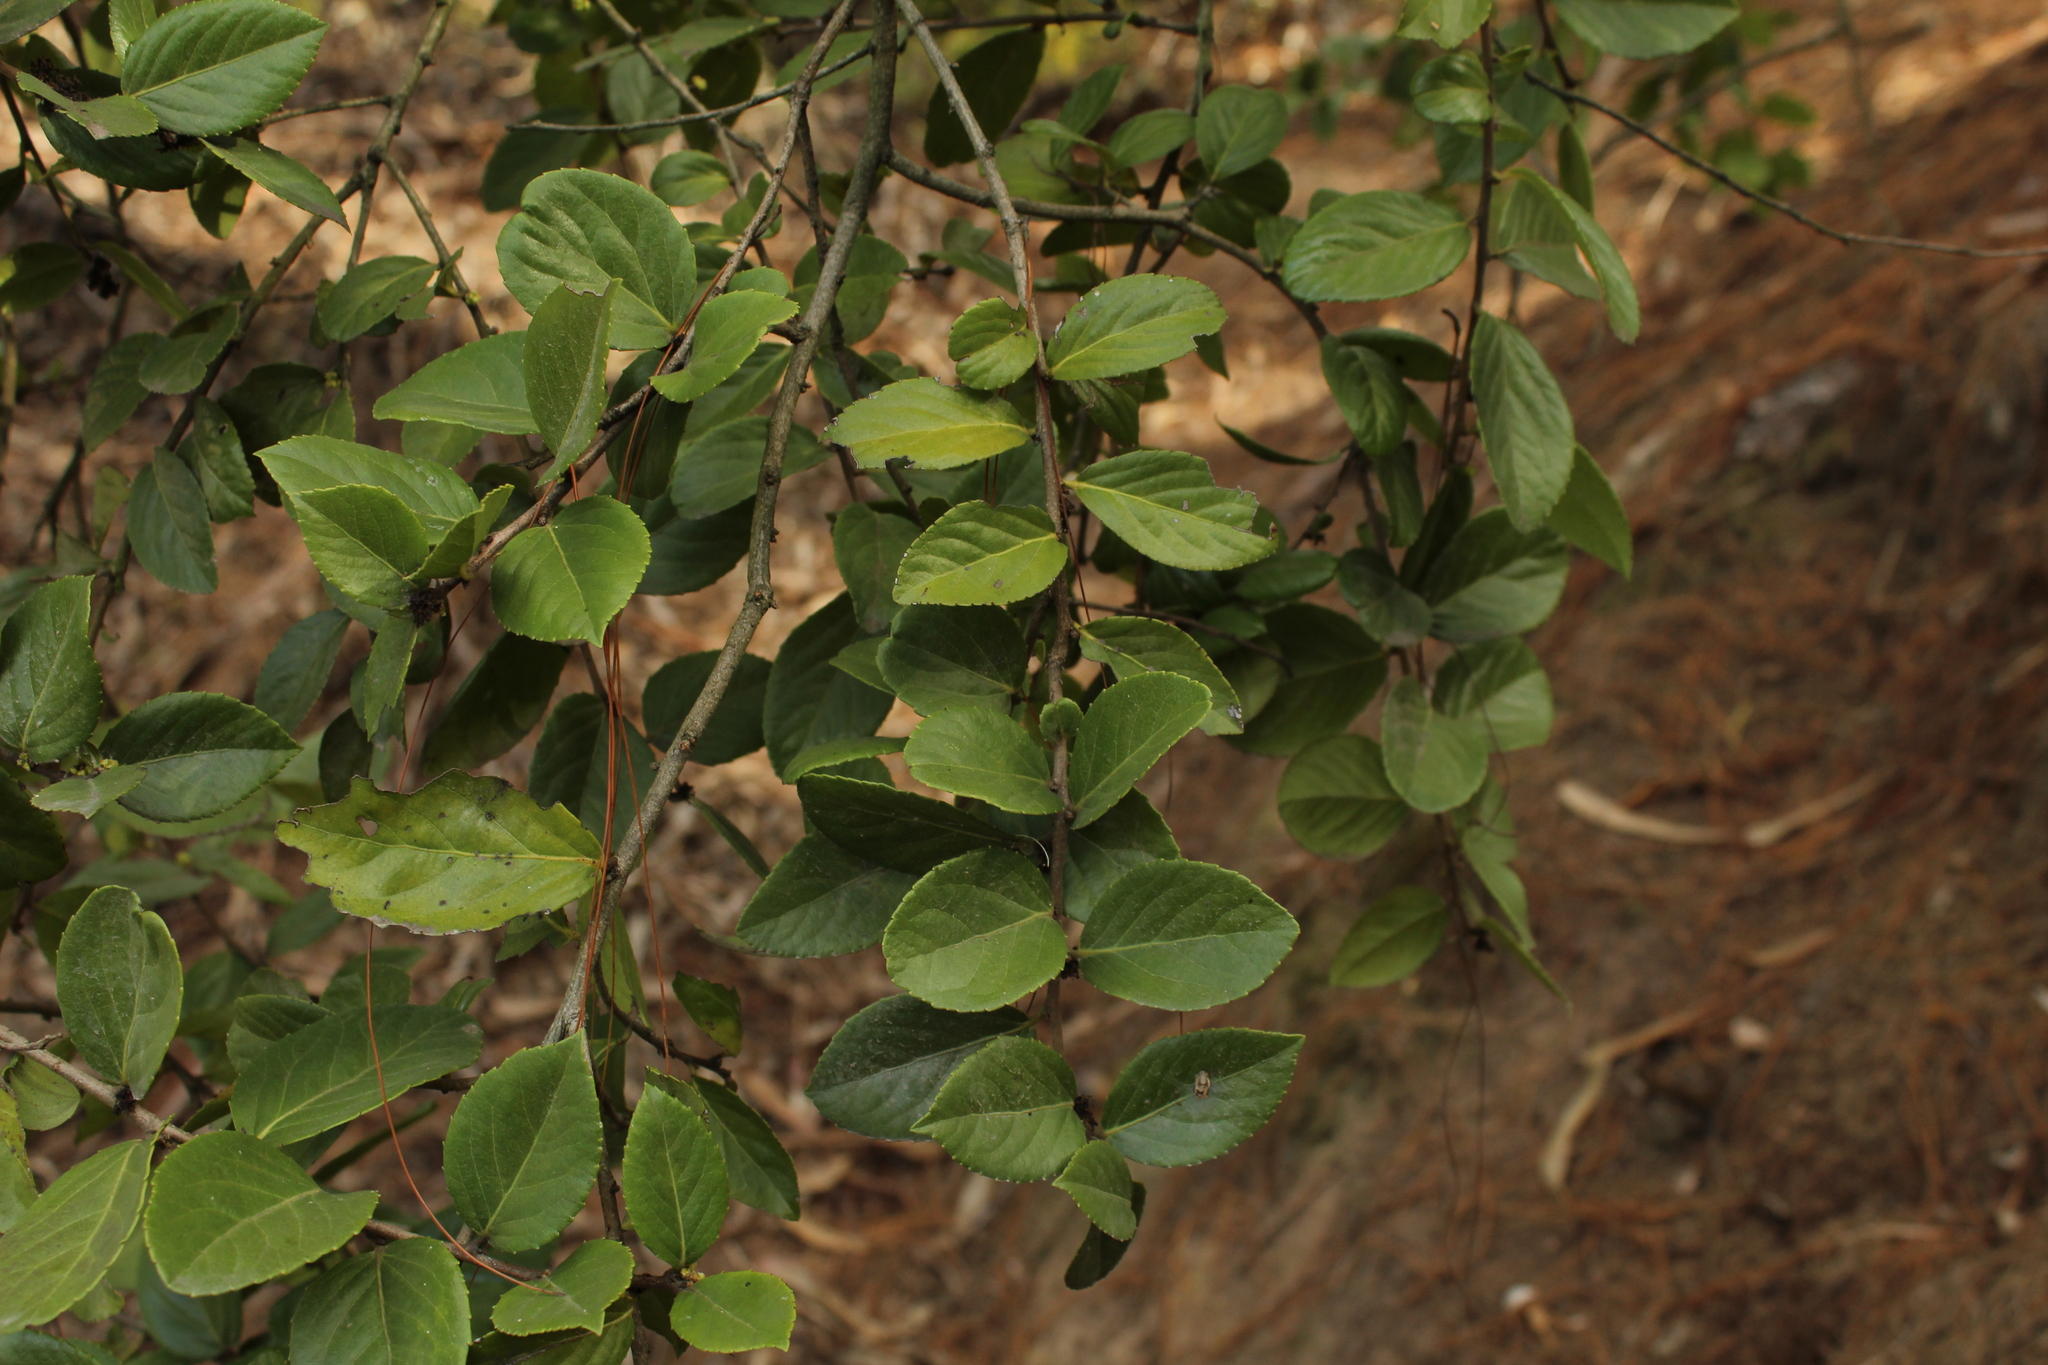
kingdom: Plantae
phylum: Tracheophyta
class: Magnoliopsida
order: Malpighiales
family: Salicaceae
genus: Xylosma
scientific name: Xylosma spiculifera
